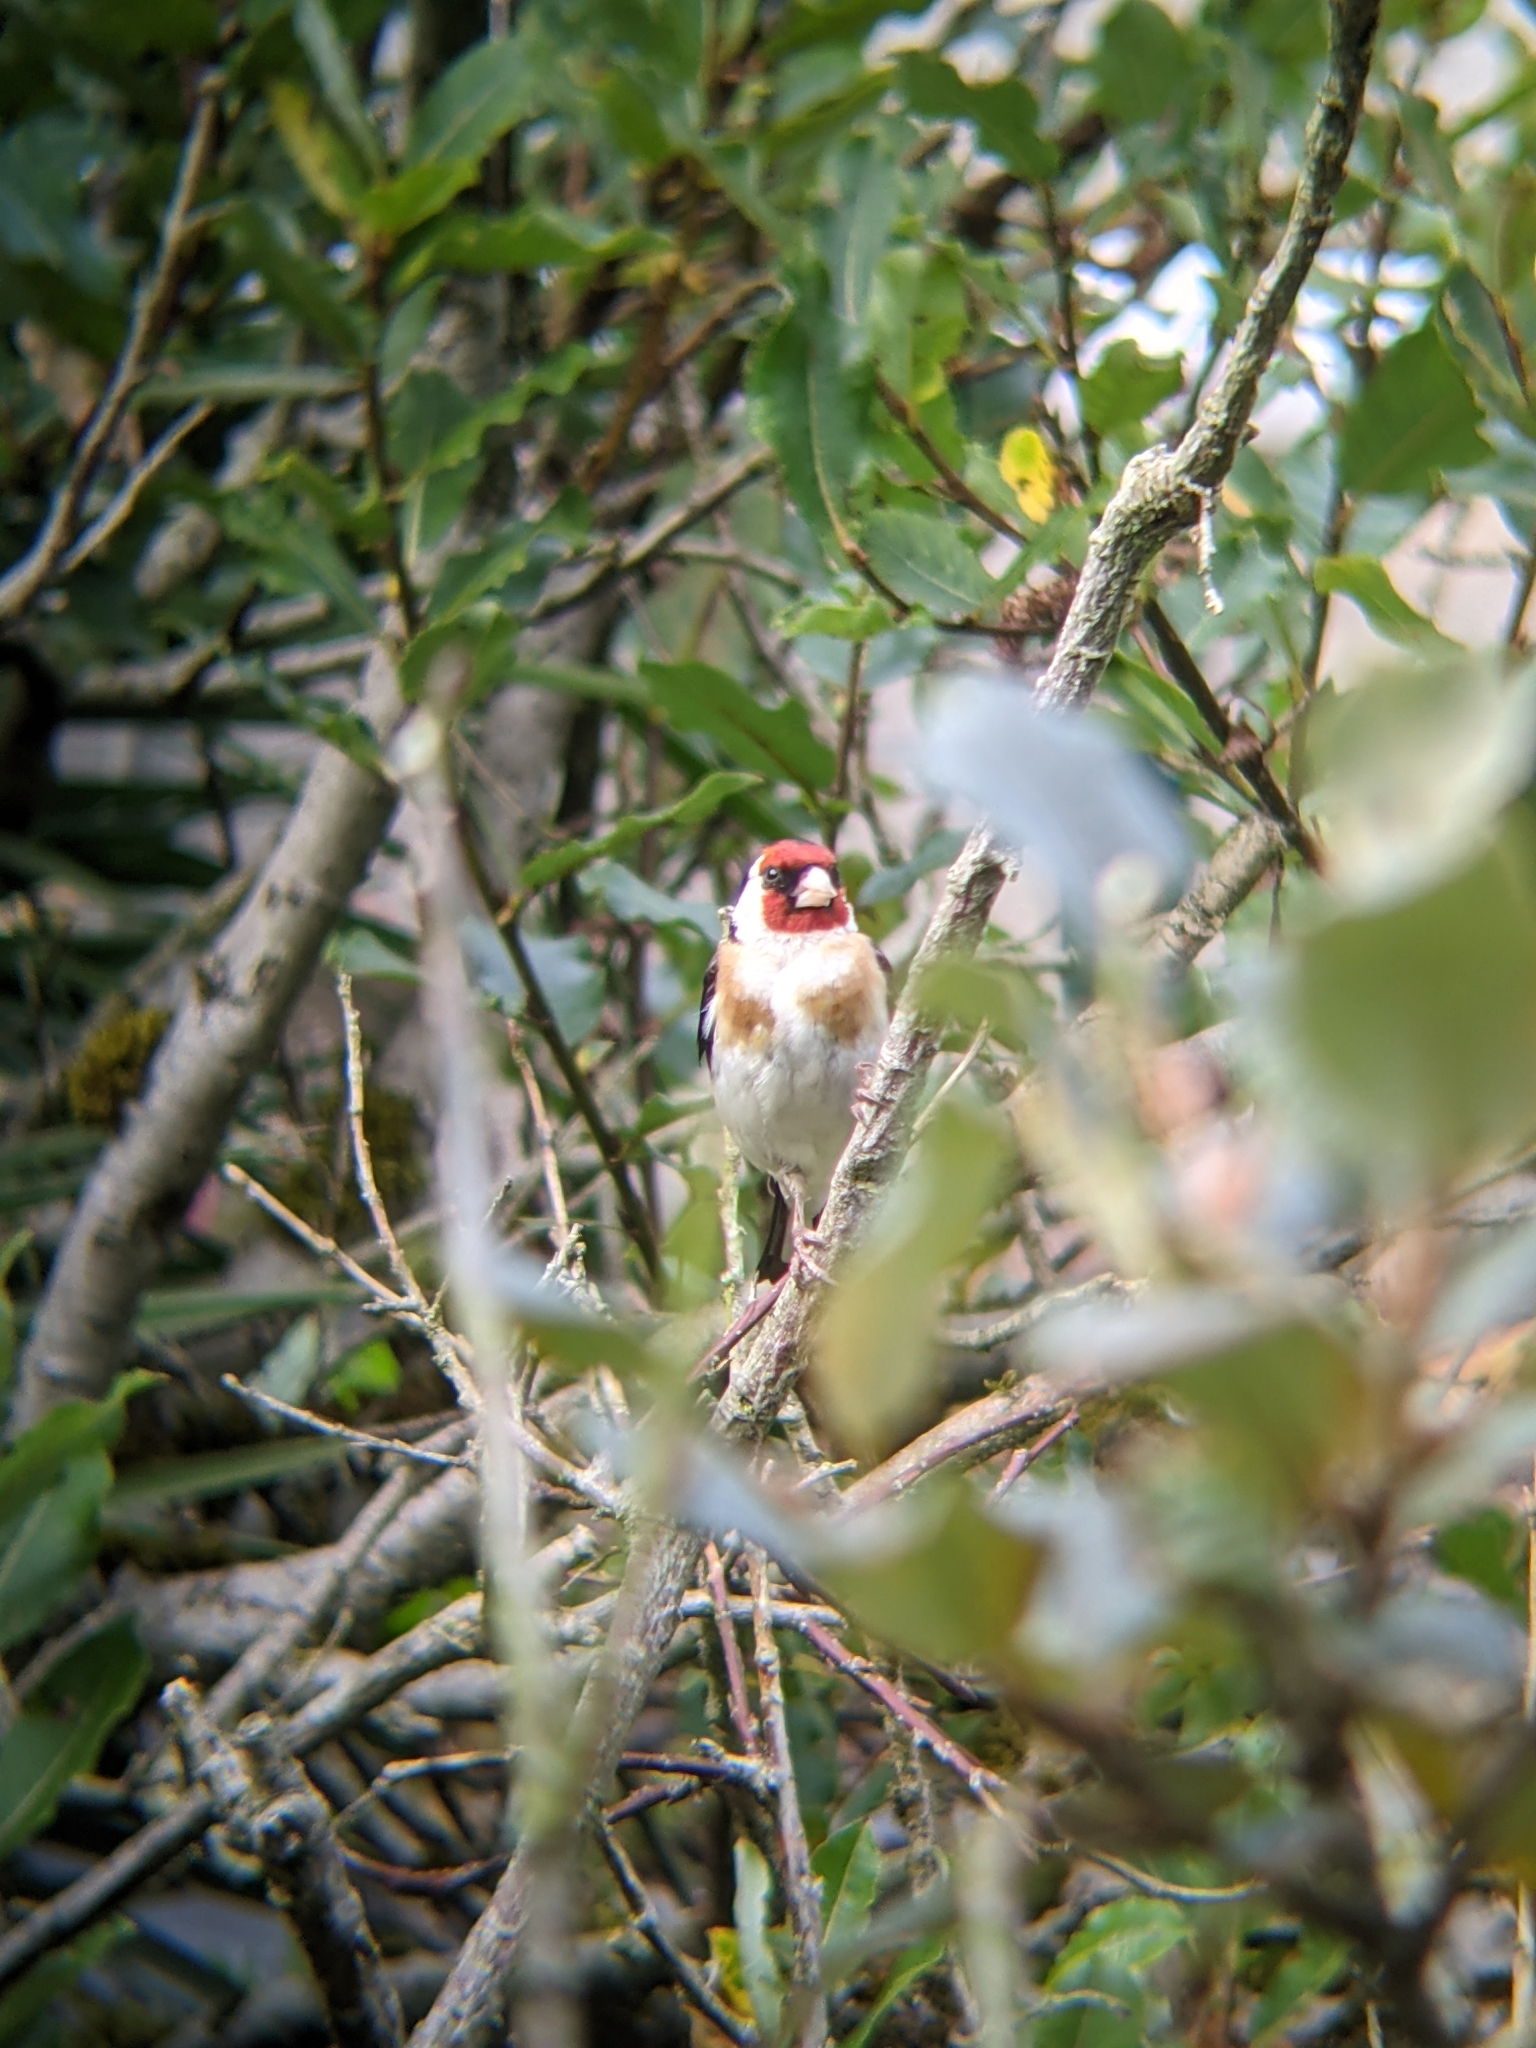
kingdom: Animalia
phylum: Chordata
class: Aves
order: Passeriformes
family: Fringillidae
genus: Carduelis
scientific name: Carduelis carduelis
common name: European goldfinch
